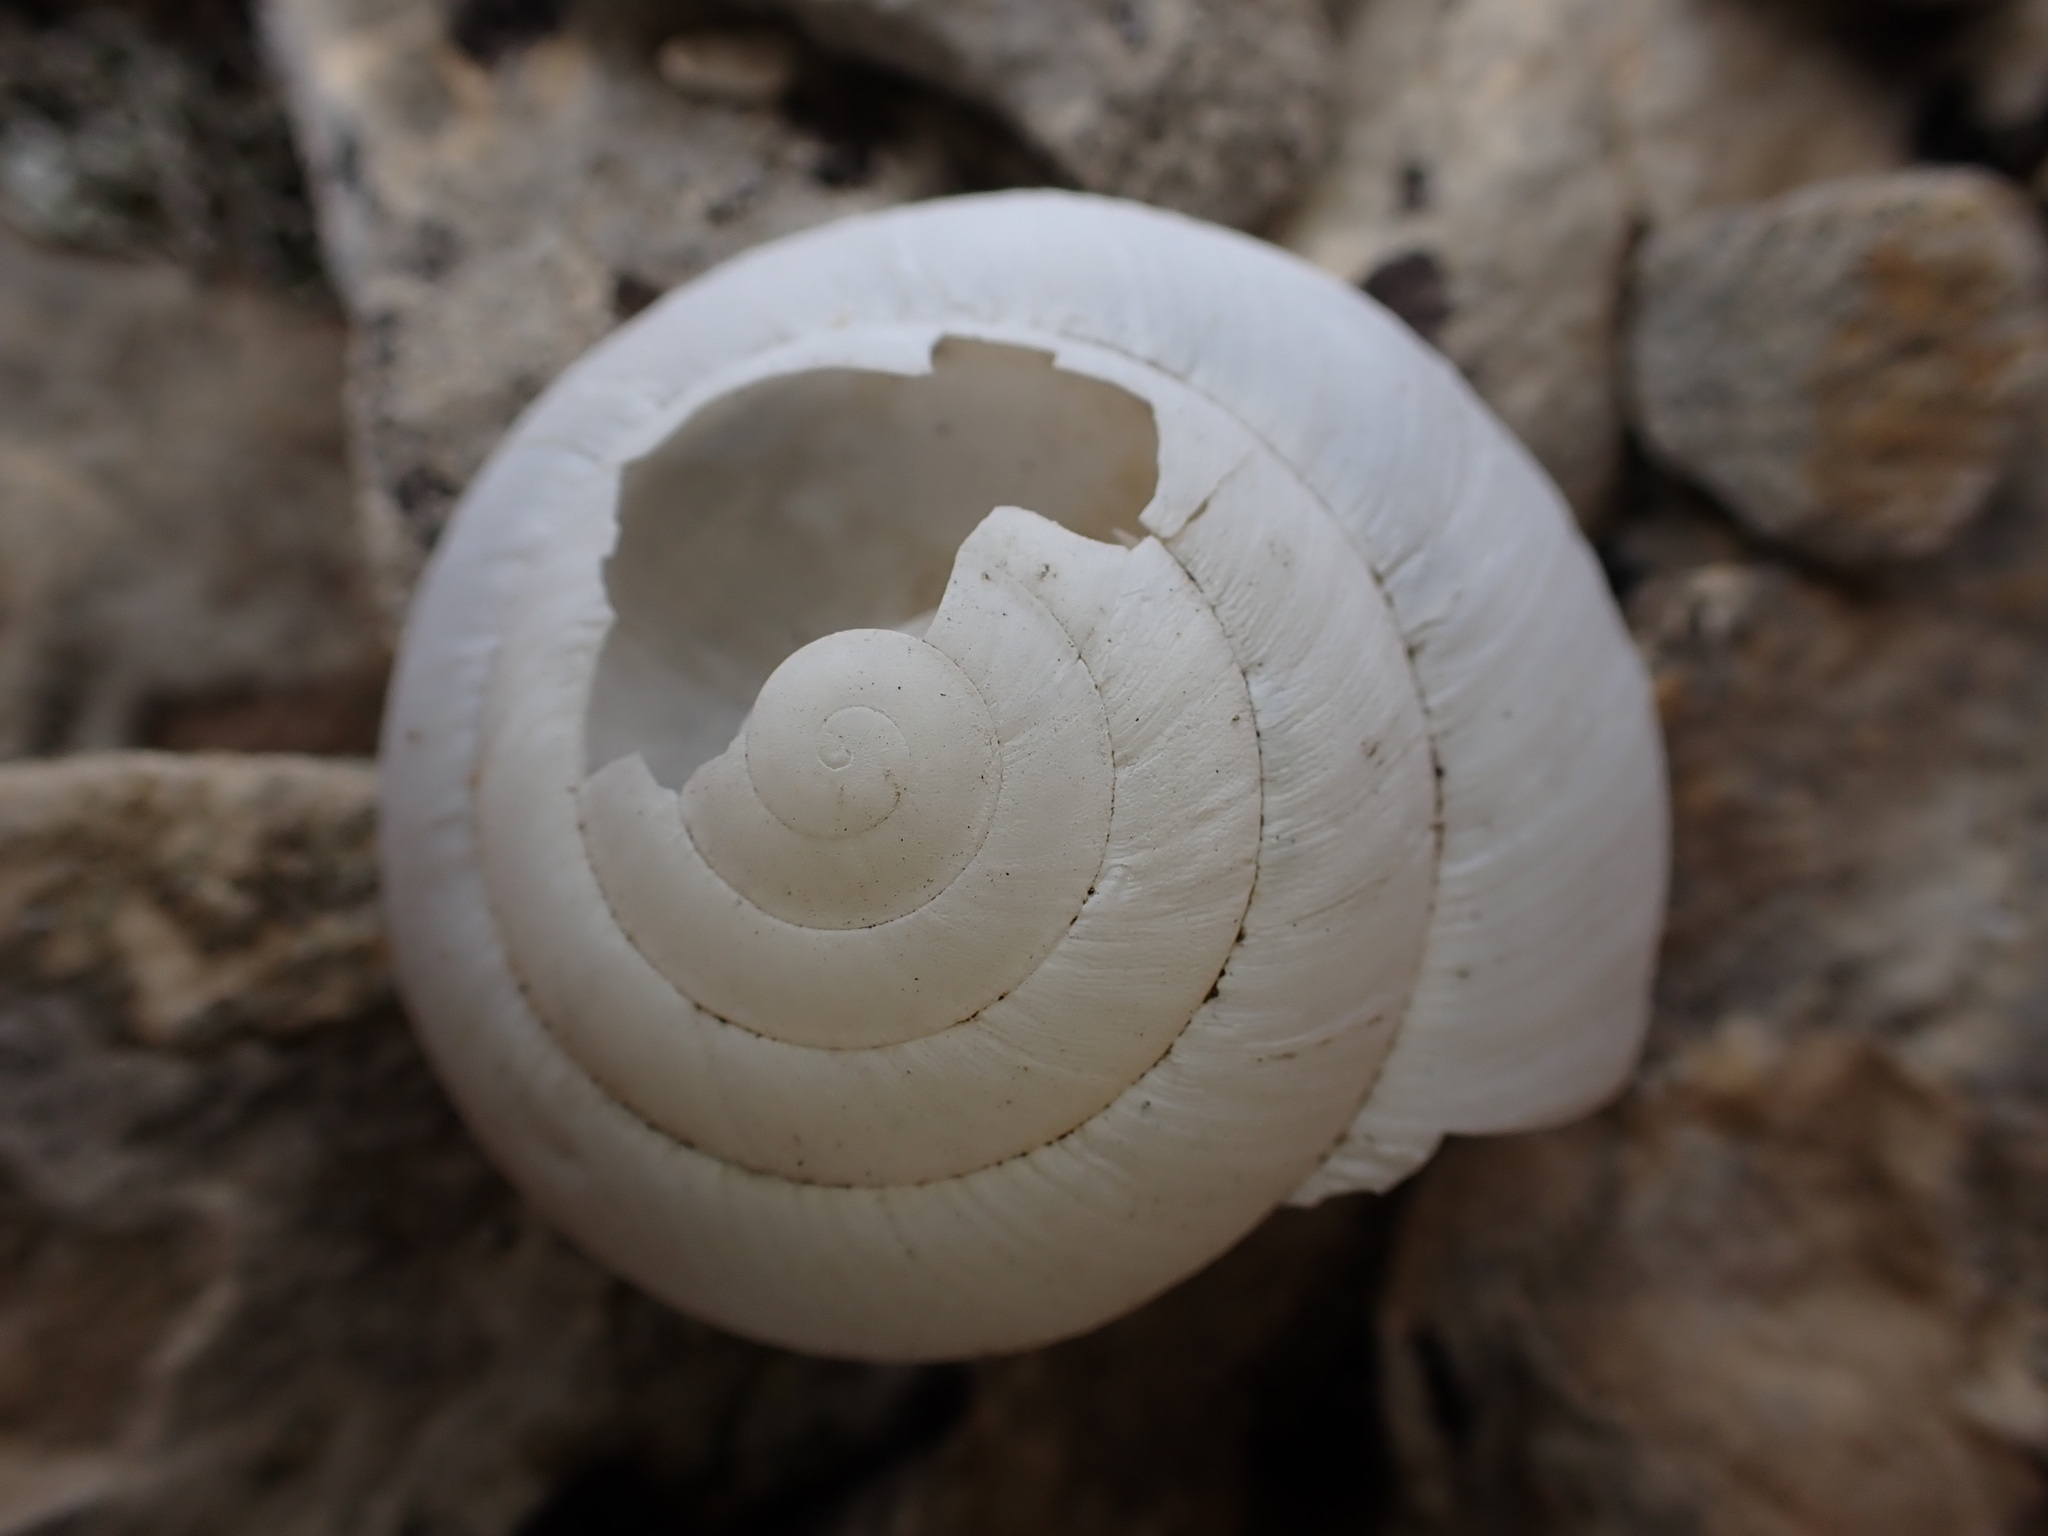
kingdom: Animalia
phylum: Mollusca
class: Gastropoda
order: Stylommatophora
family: Zonitidae
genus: Zonites
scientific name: Zonites algirus
